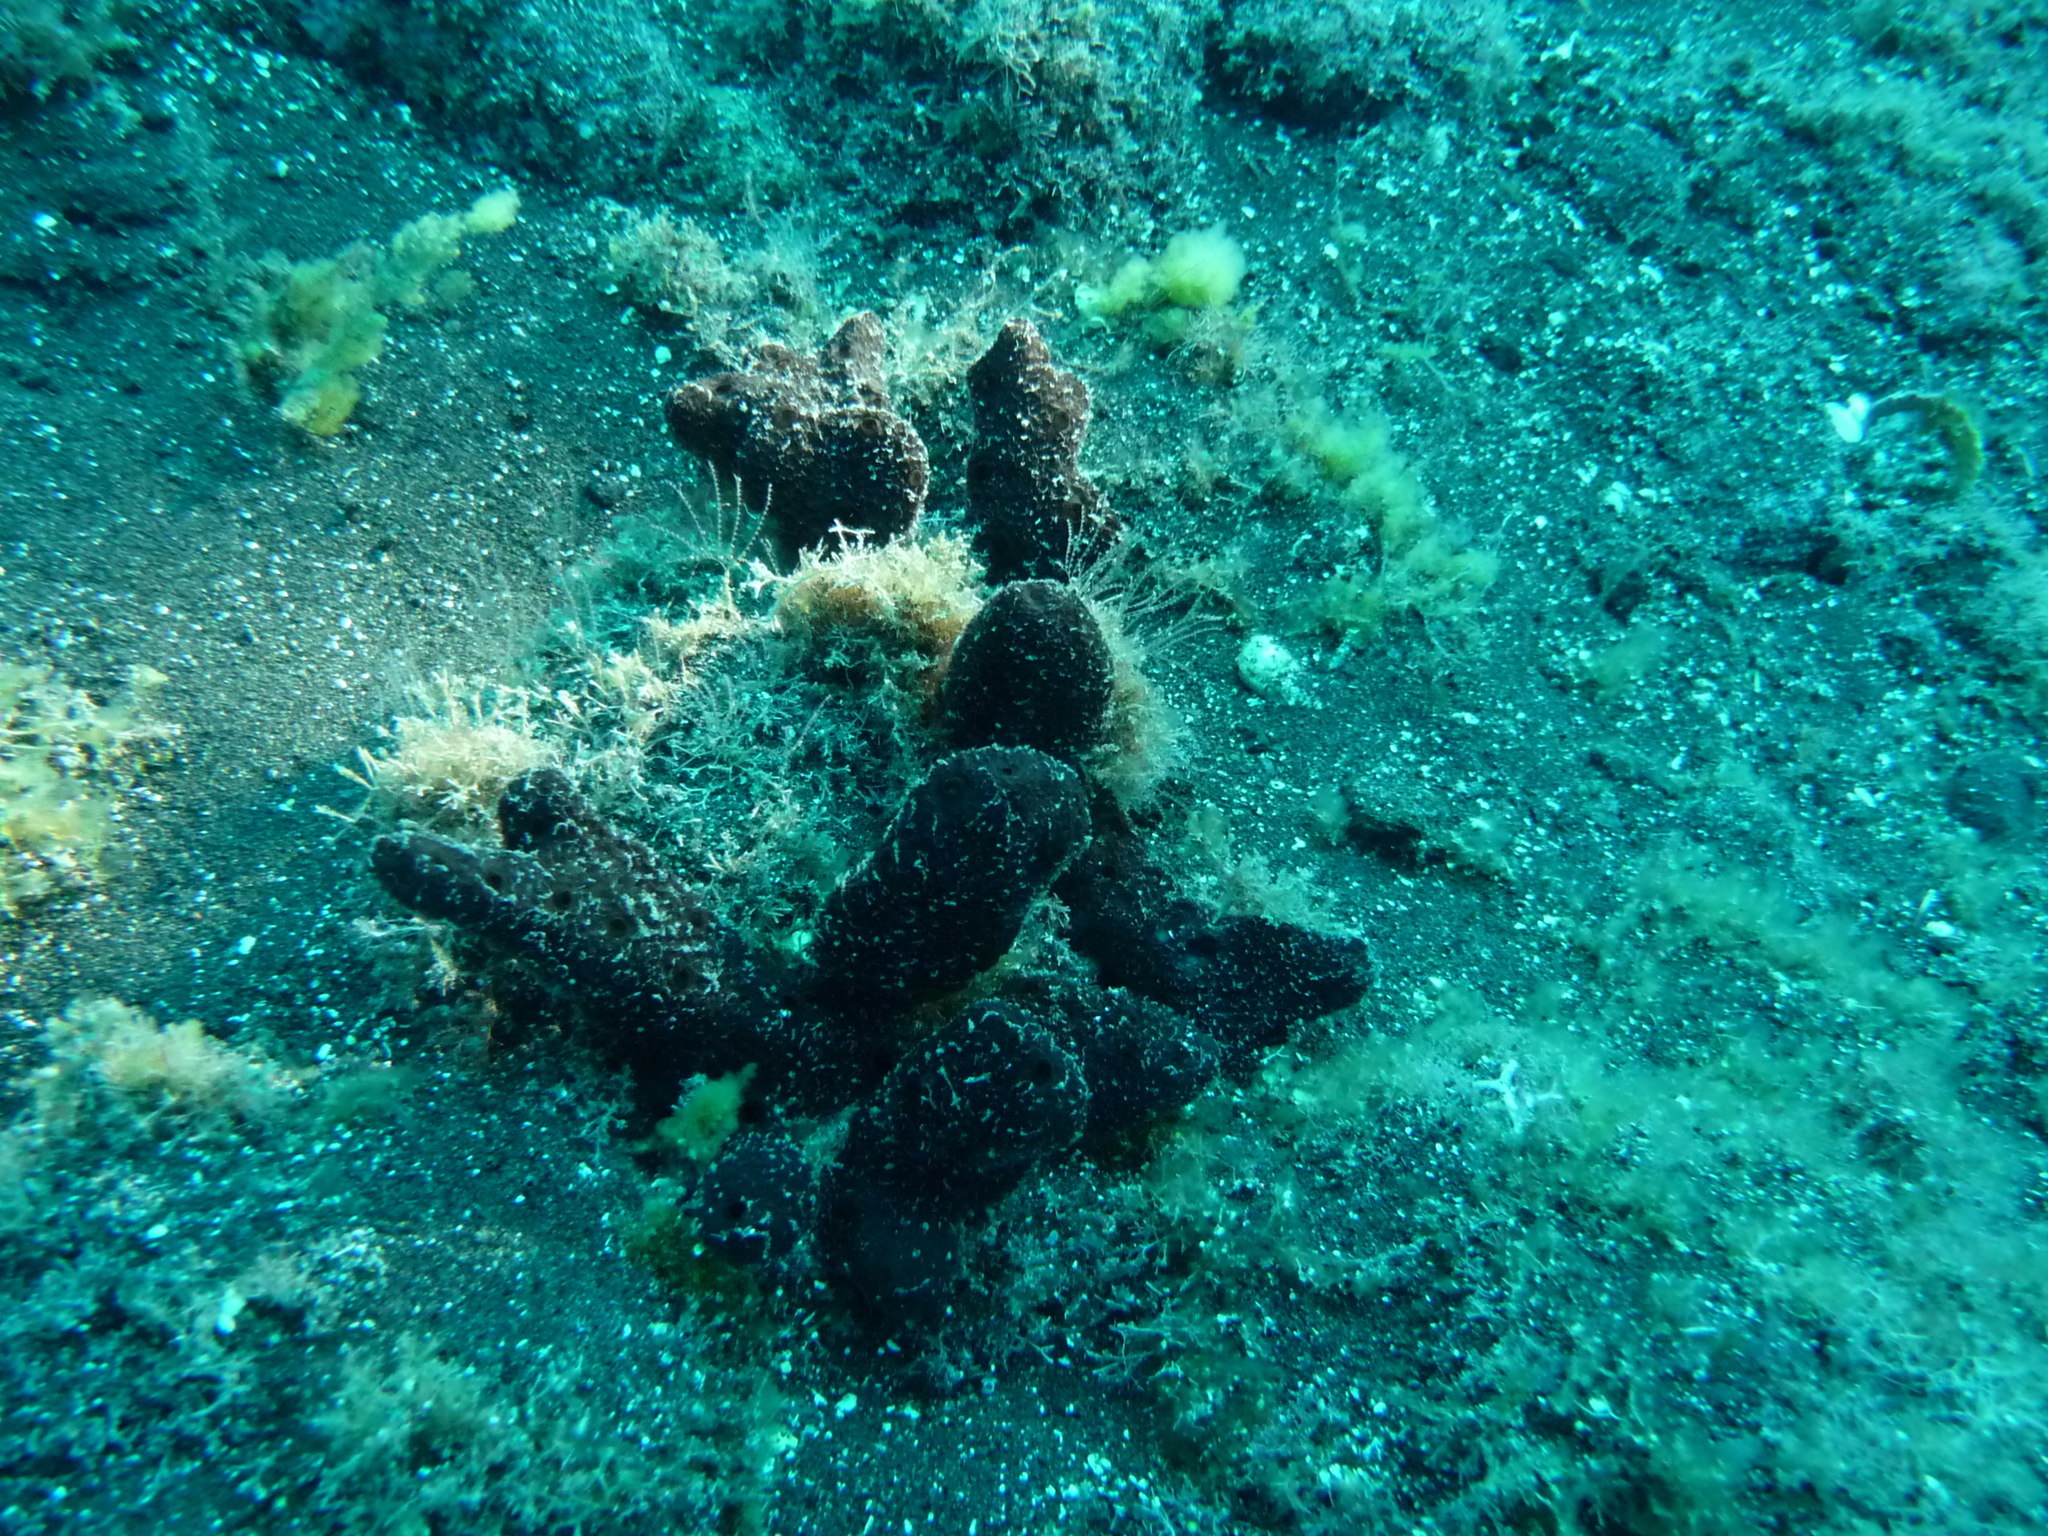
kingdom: Animalia
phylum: Porifera
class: Demospongiae
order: Haplosclerida
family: Chalinidae
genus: Chalinula
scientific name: Chalinula parasimulans
